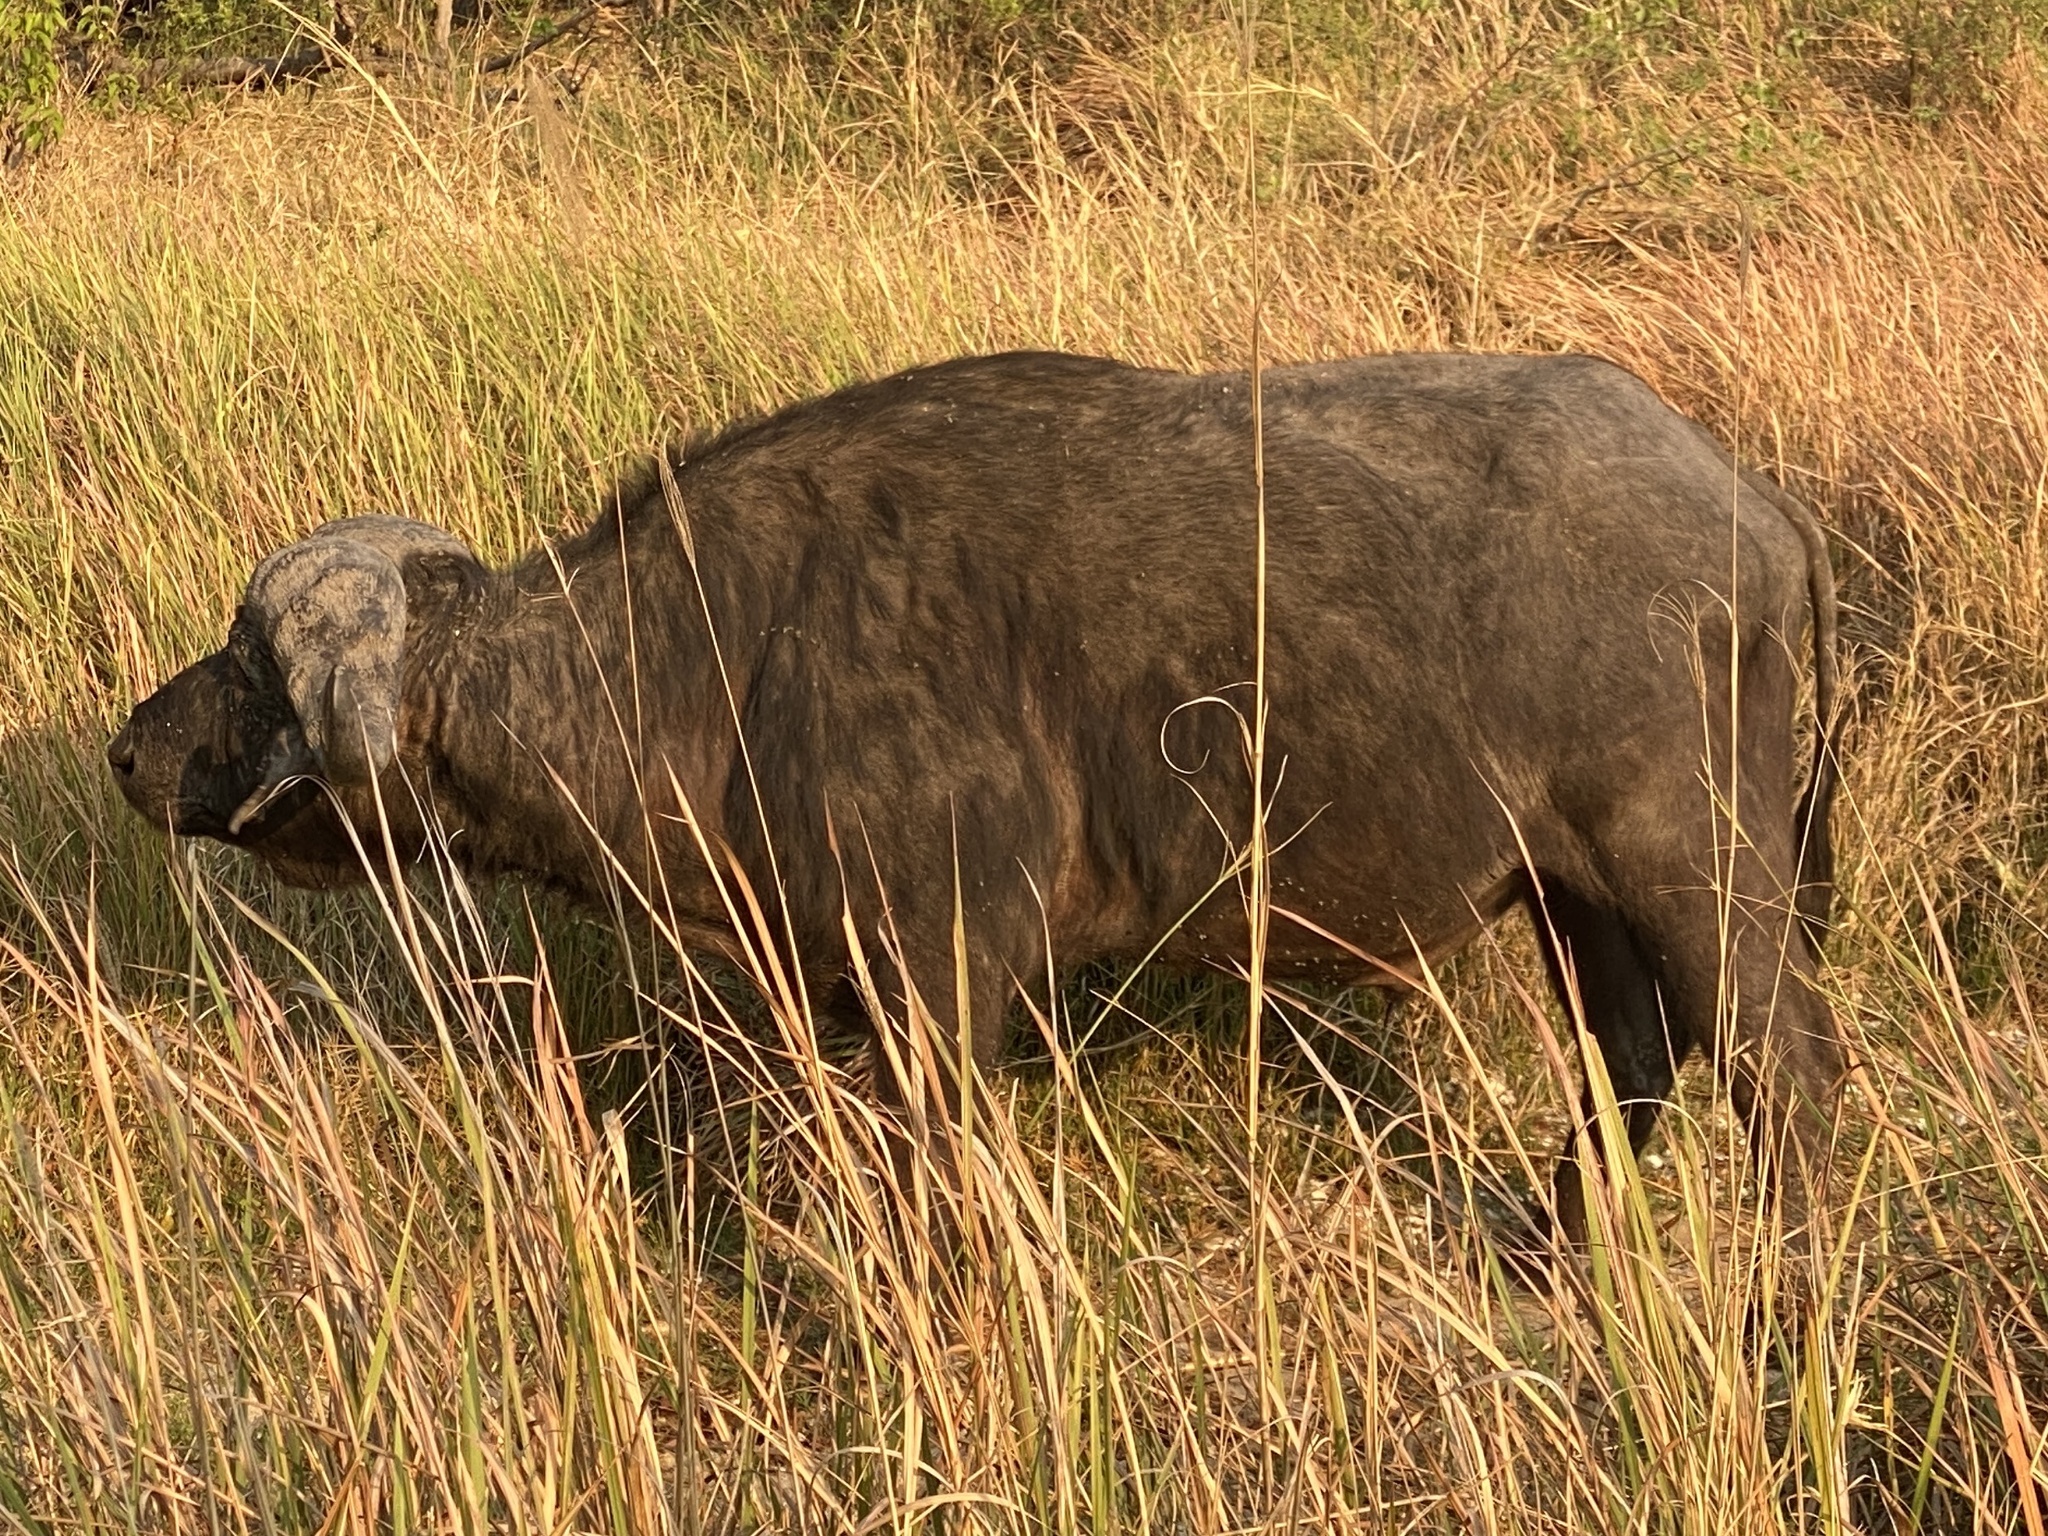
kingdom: Animalia
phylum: Chordata
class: Mammalia
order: Artiodactyla
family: Bovidae
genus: Syncerus
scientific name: Syncerus caffer
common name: African buffalo
